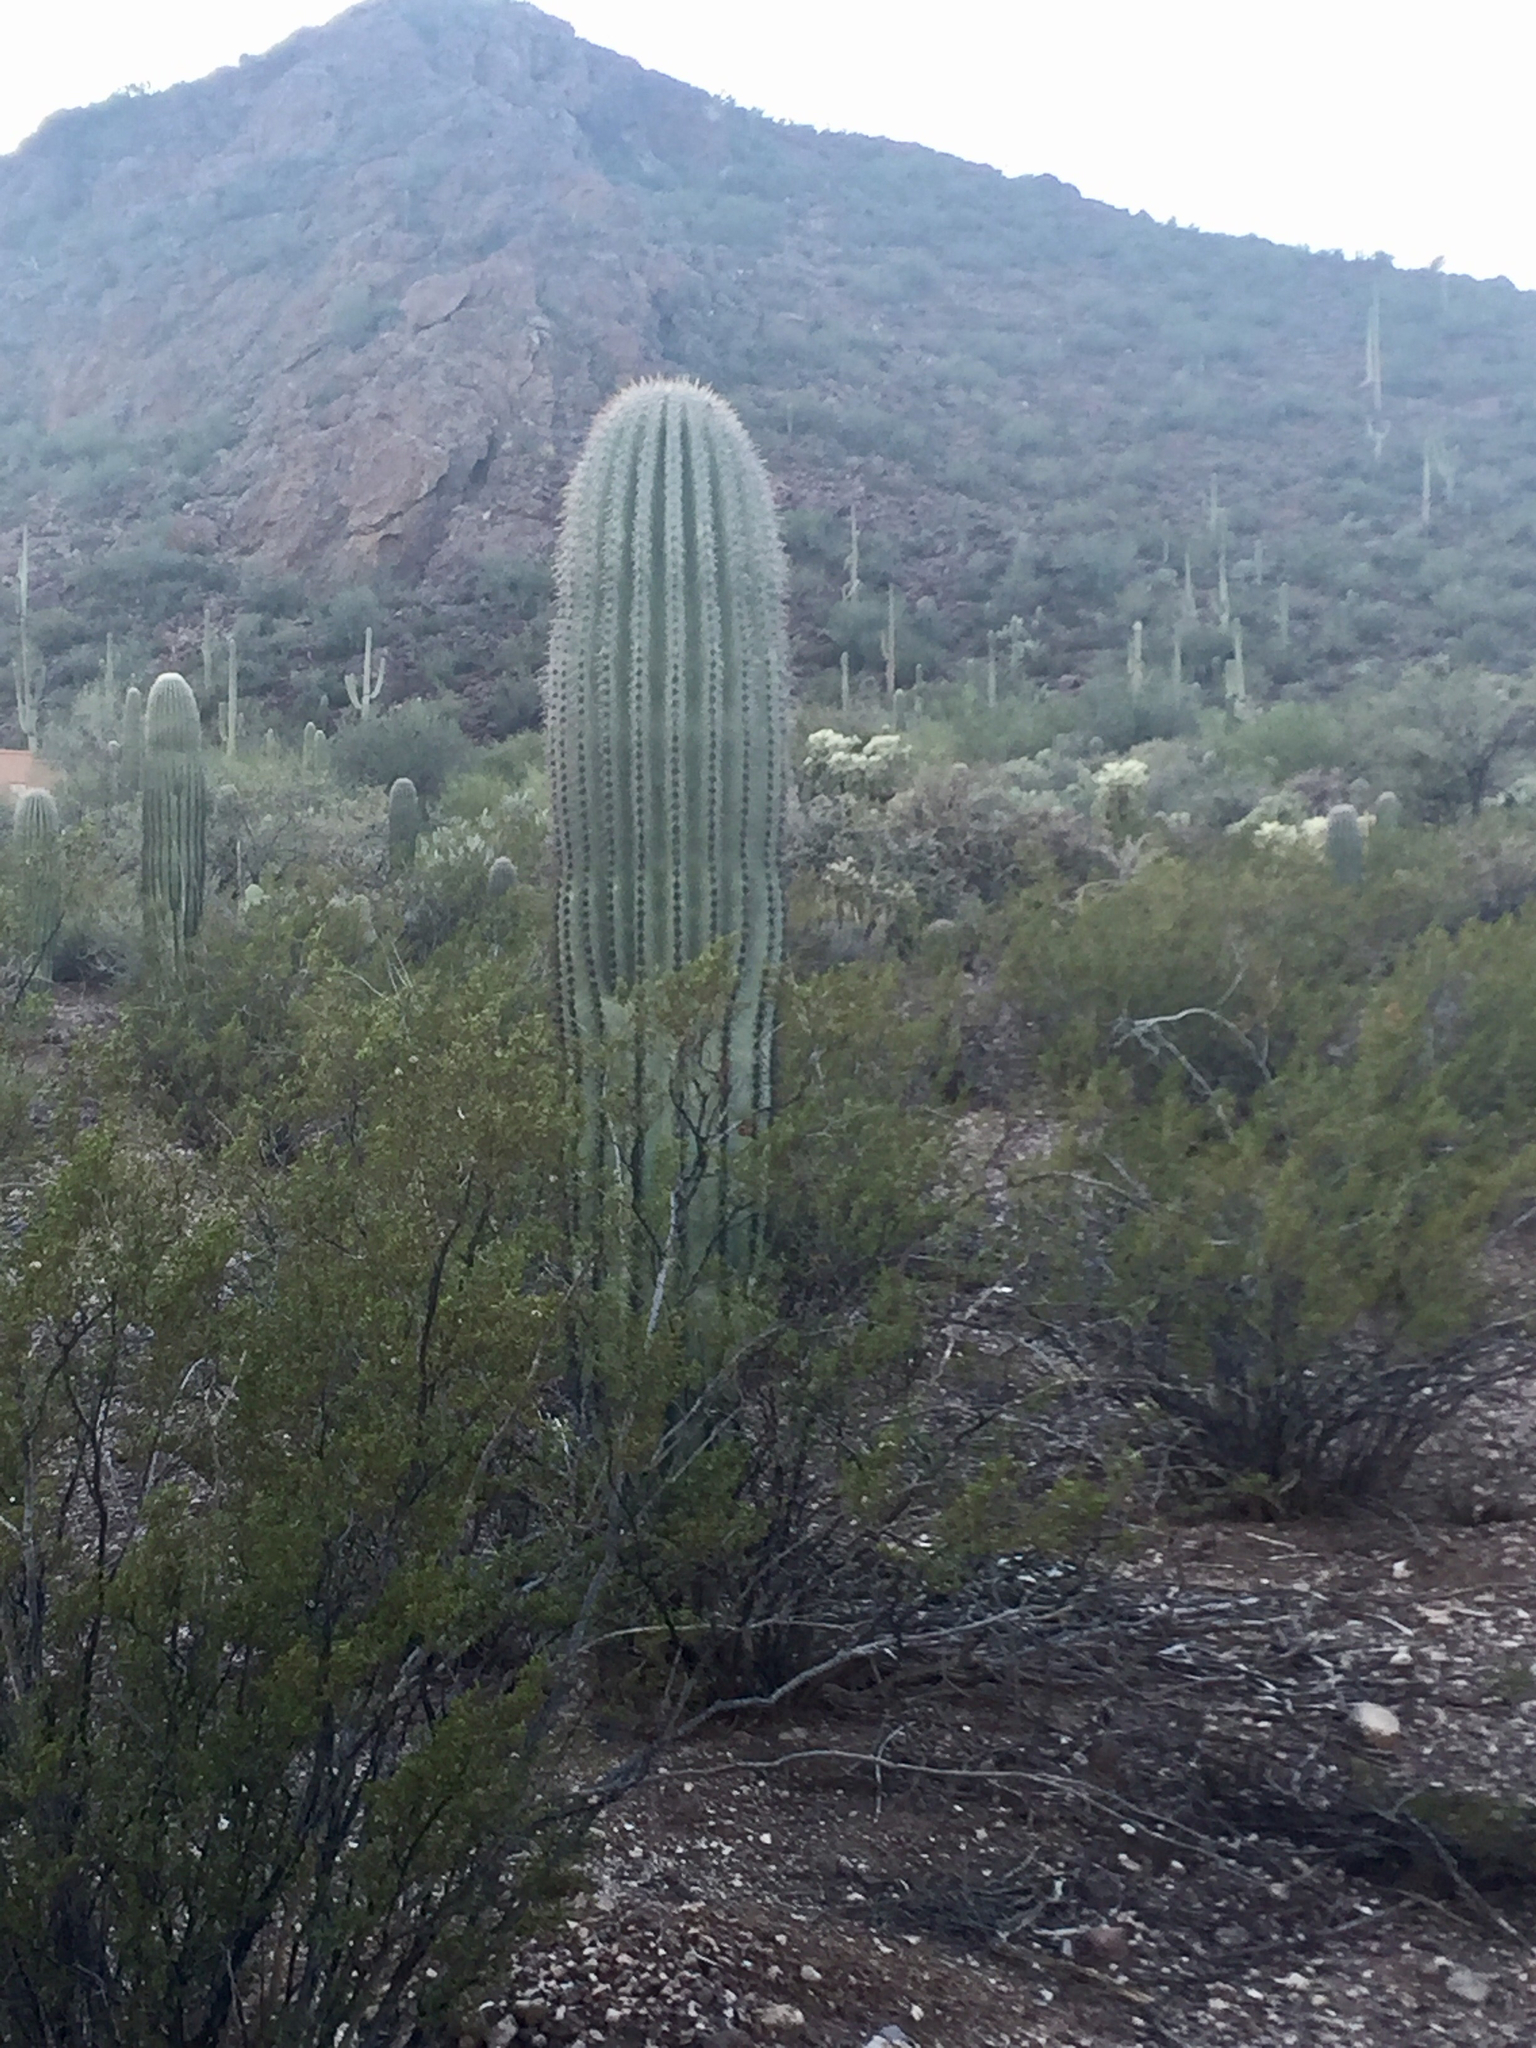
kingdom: Plantae
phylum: Tracheophyta
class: Magnoliopsida
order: Caryophyllales
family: Cactaceae
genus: Carnegiea
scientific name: Carnegiea gigantea
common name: Saguaro
